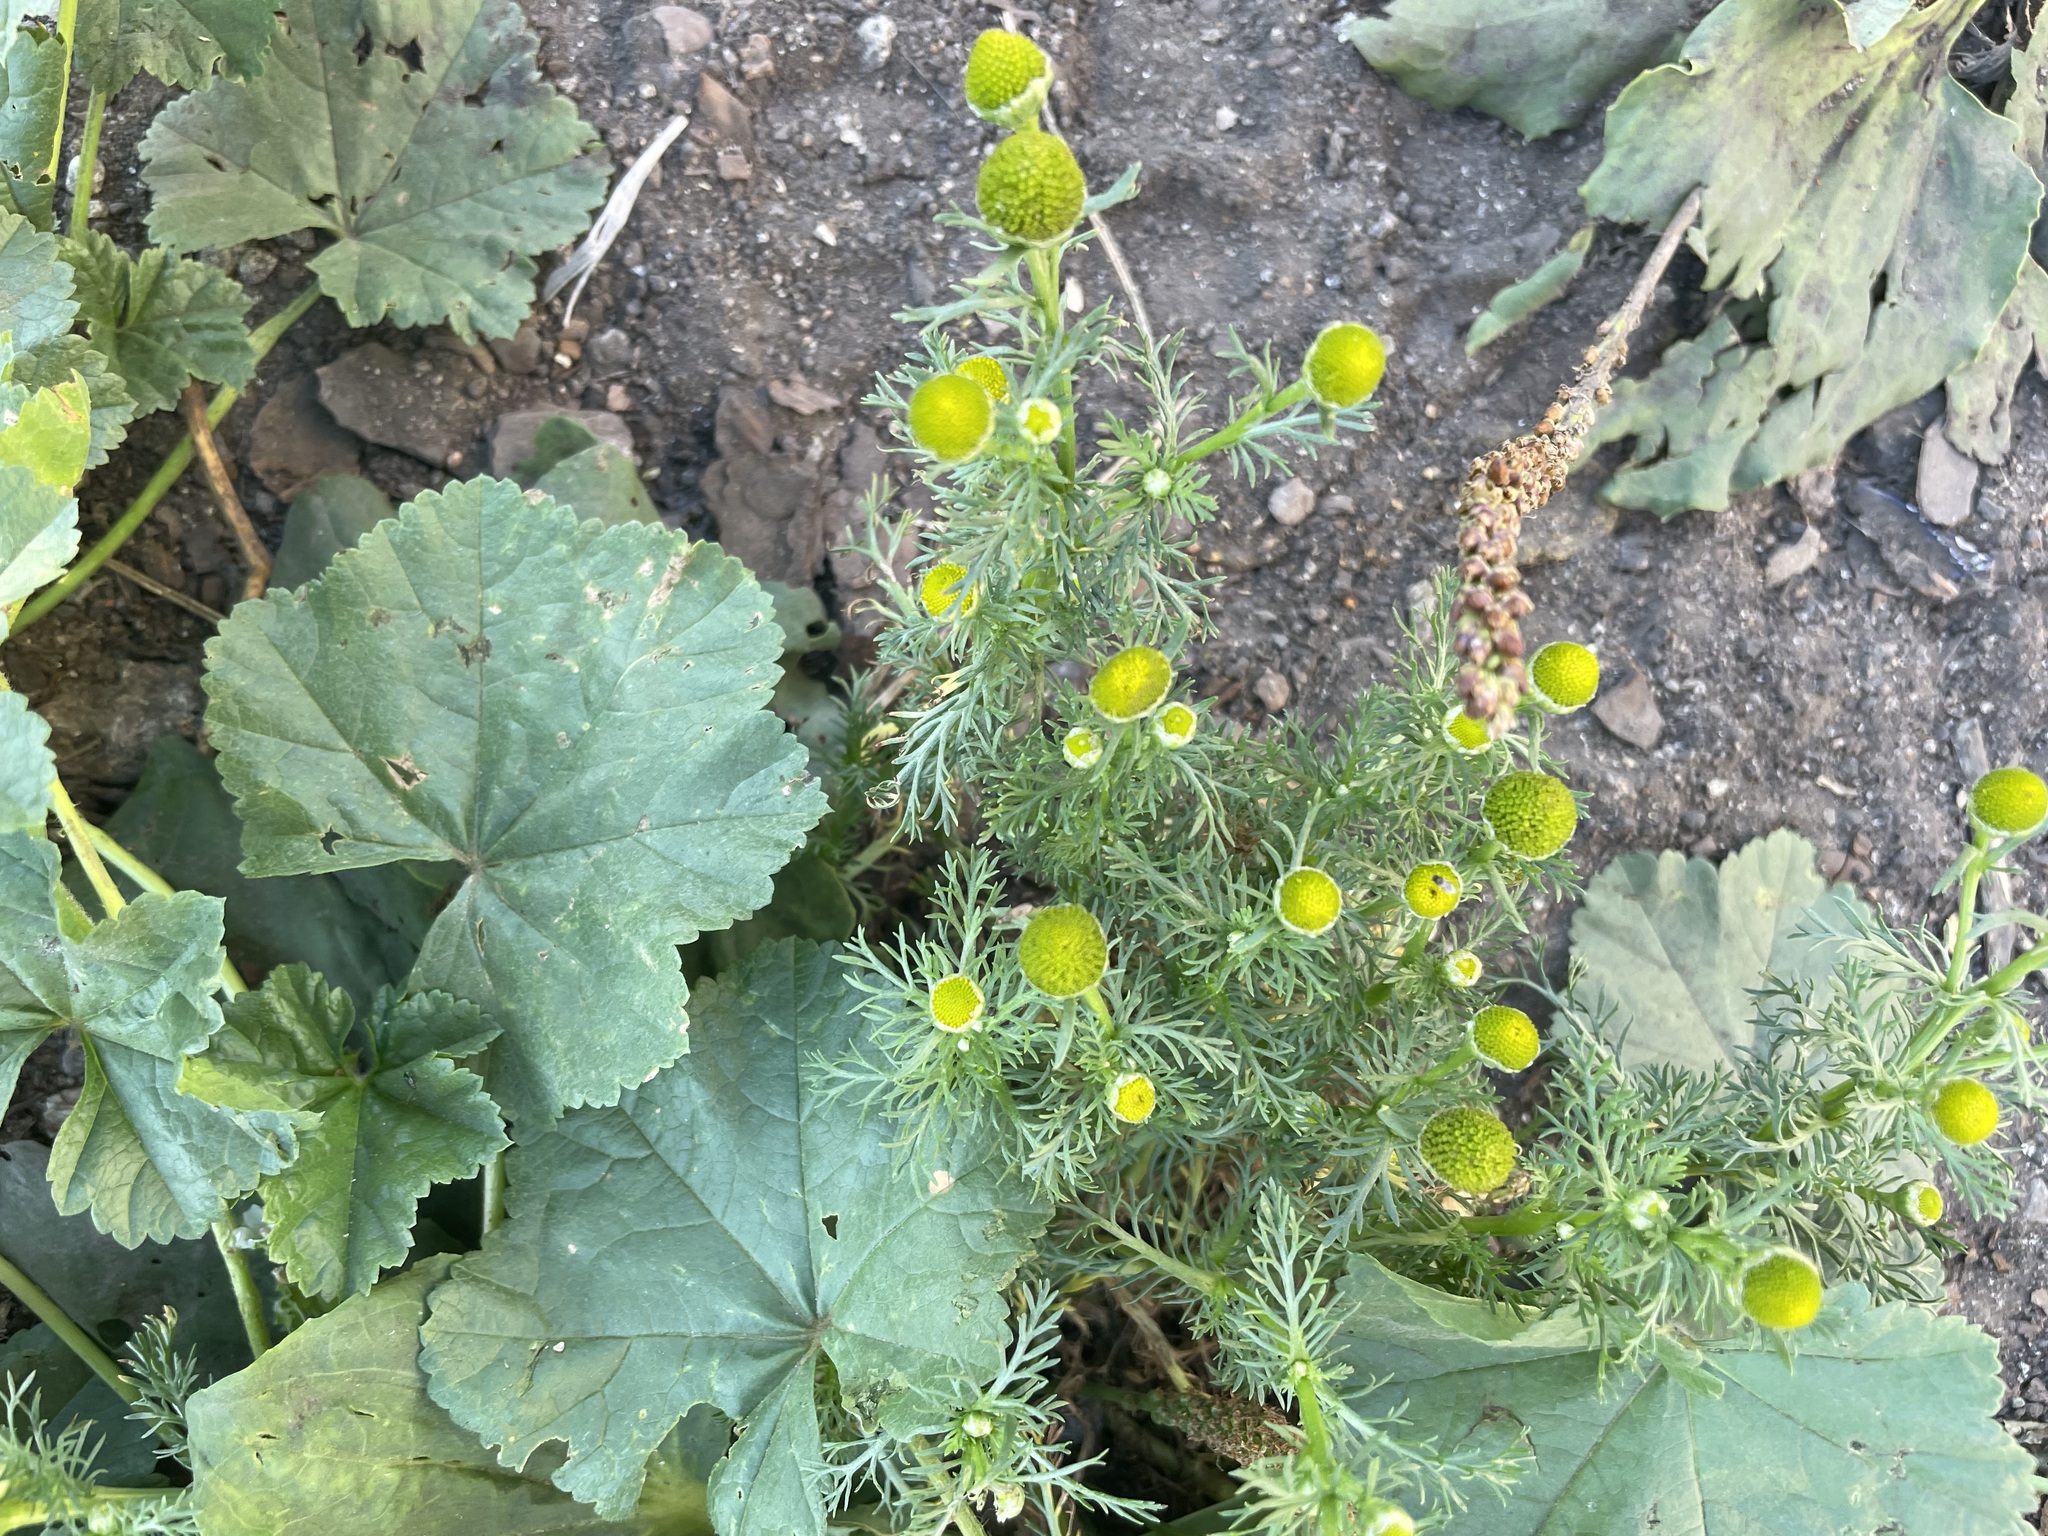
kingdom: Plantae
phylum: Tracheophyta
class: Magnoliopsida
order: Asterales
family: Asteraceae
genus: Matricaria
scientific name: Matricaria discoidea
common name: Disc mayweed
